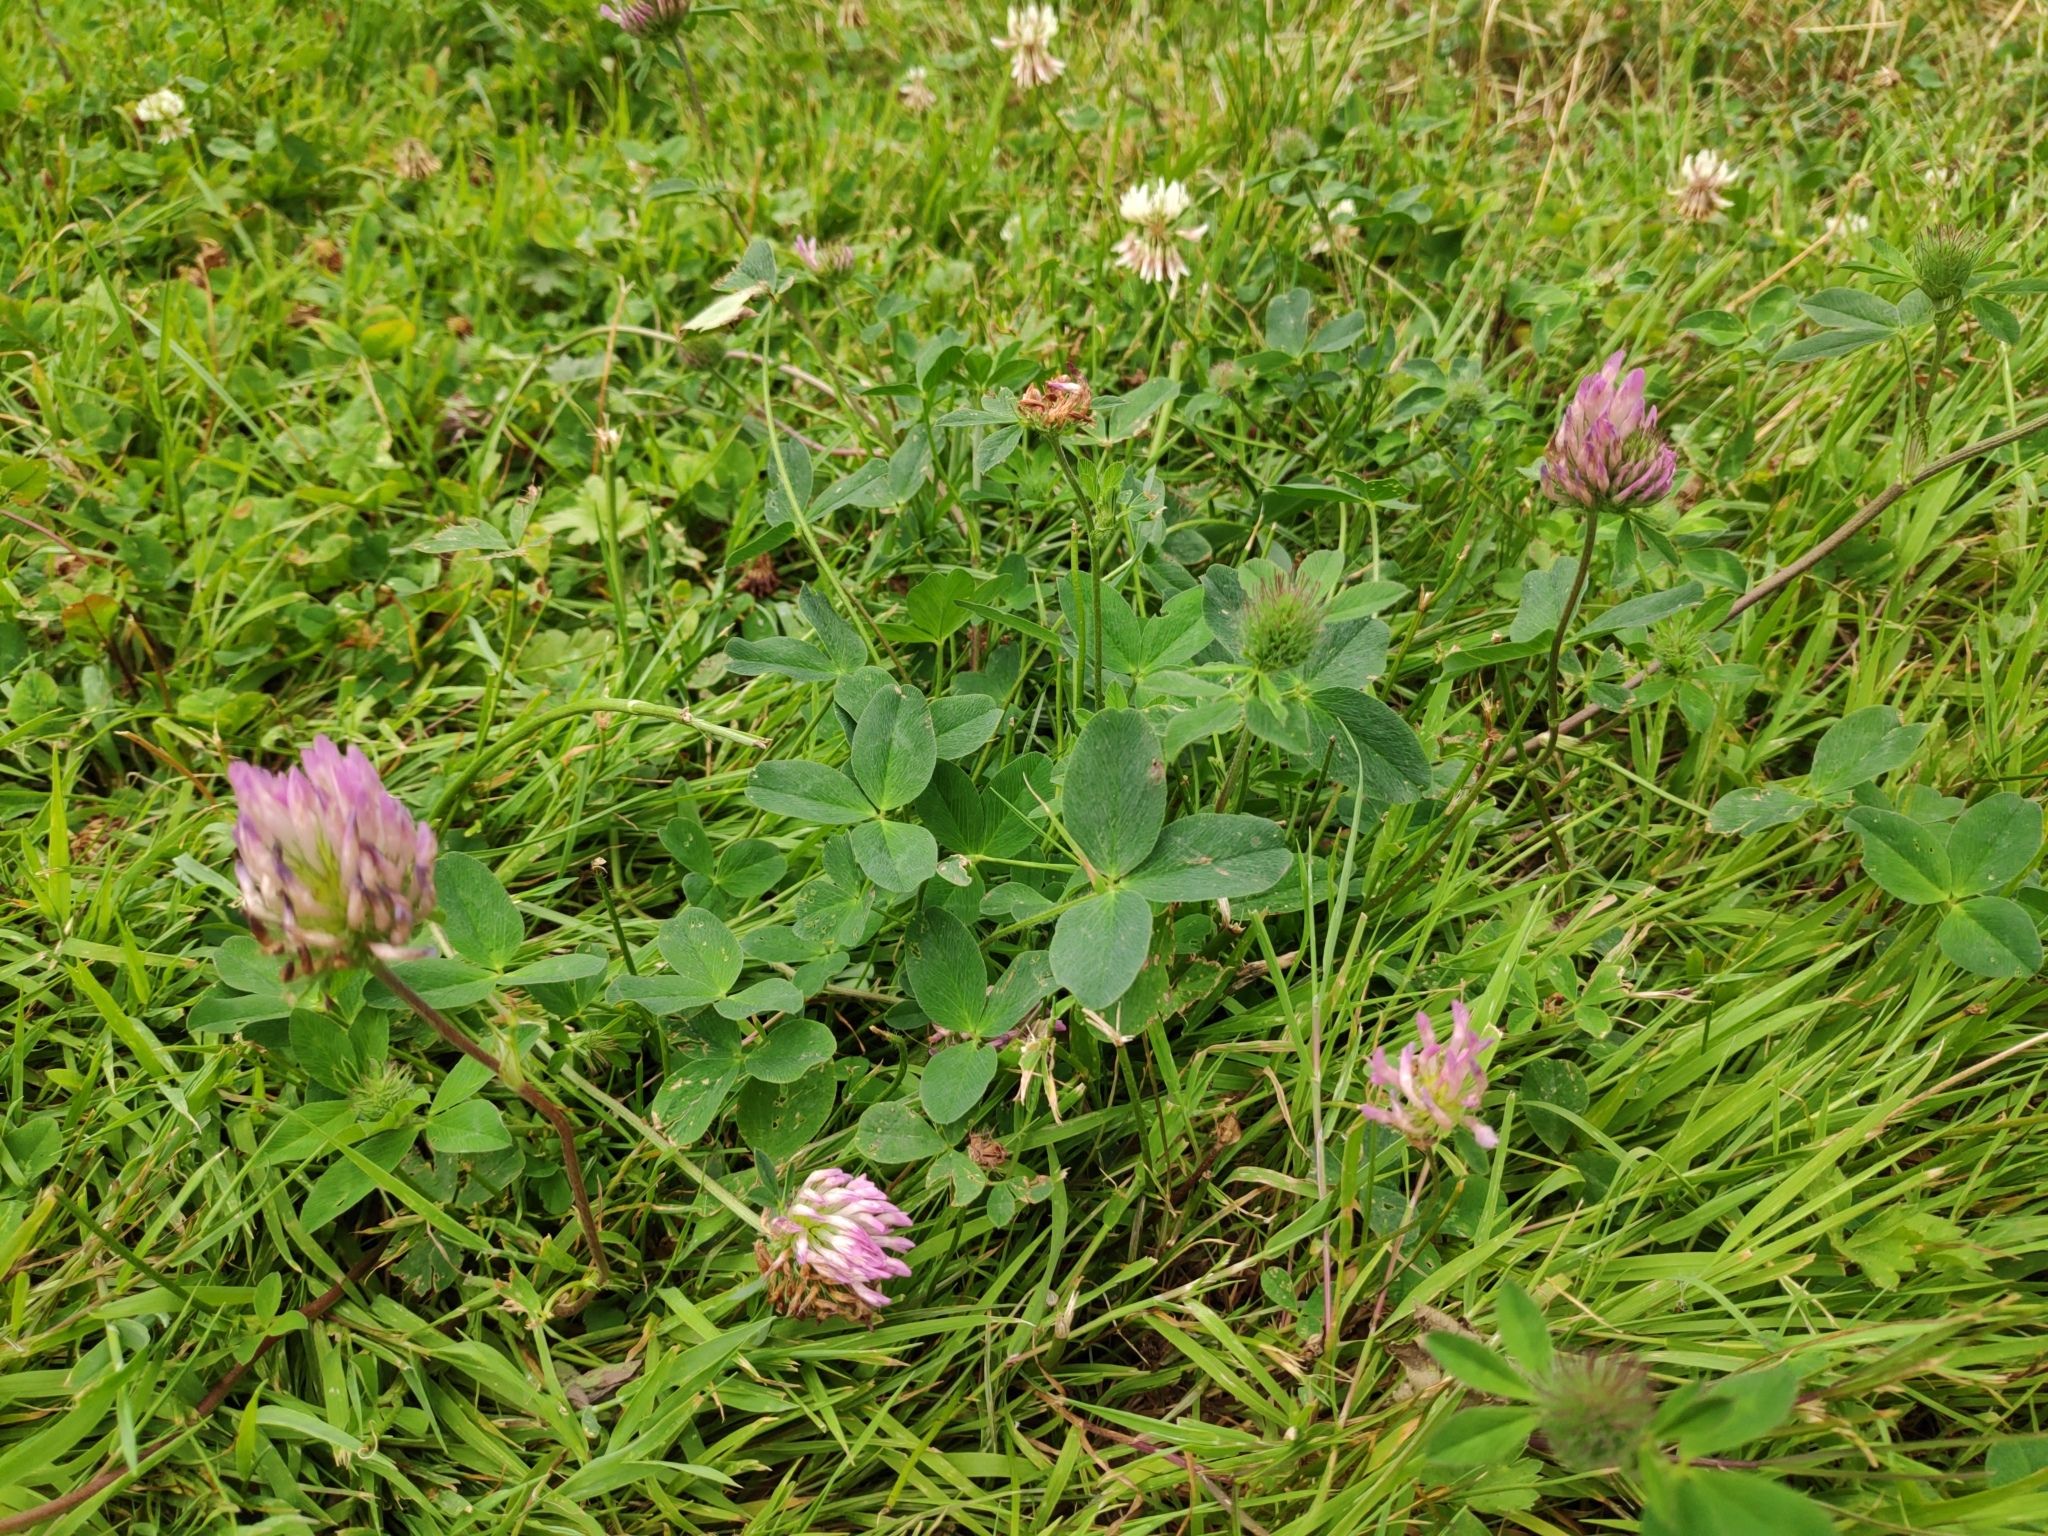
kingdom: Plantae
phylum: Tracheophyta
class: Magnoliopsida
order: Fabales
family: Fabaceae
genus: Trifolium
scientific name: Trifolium pratense
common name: Red clover
